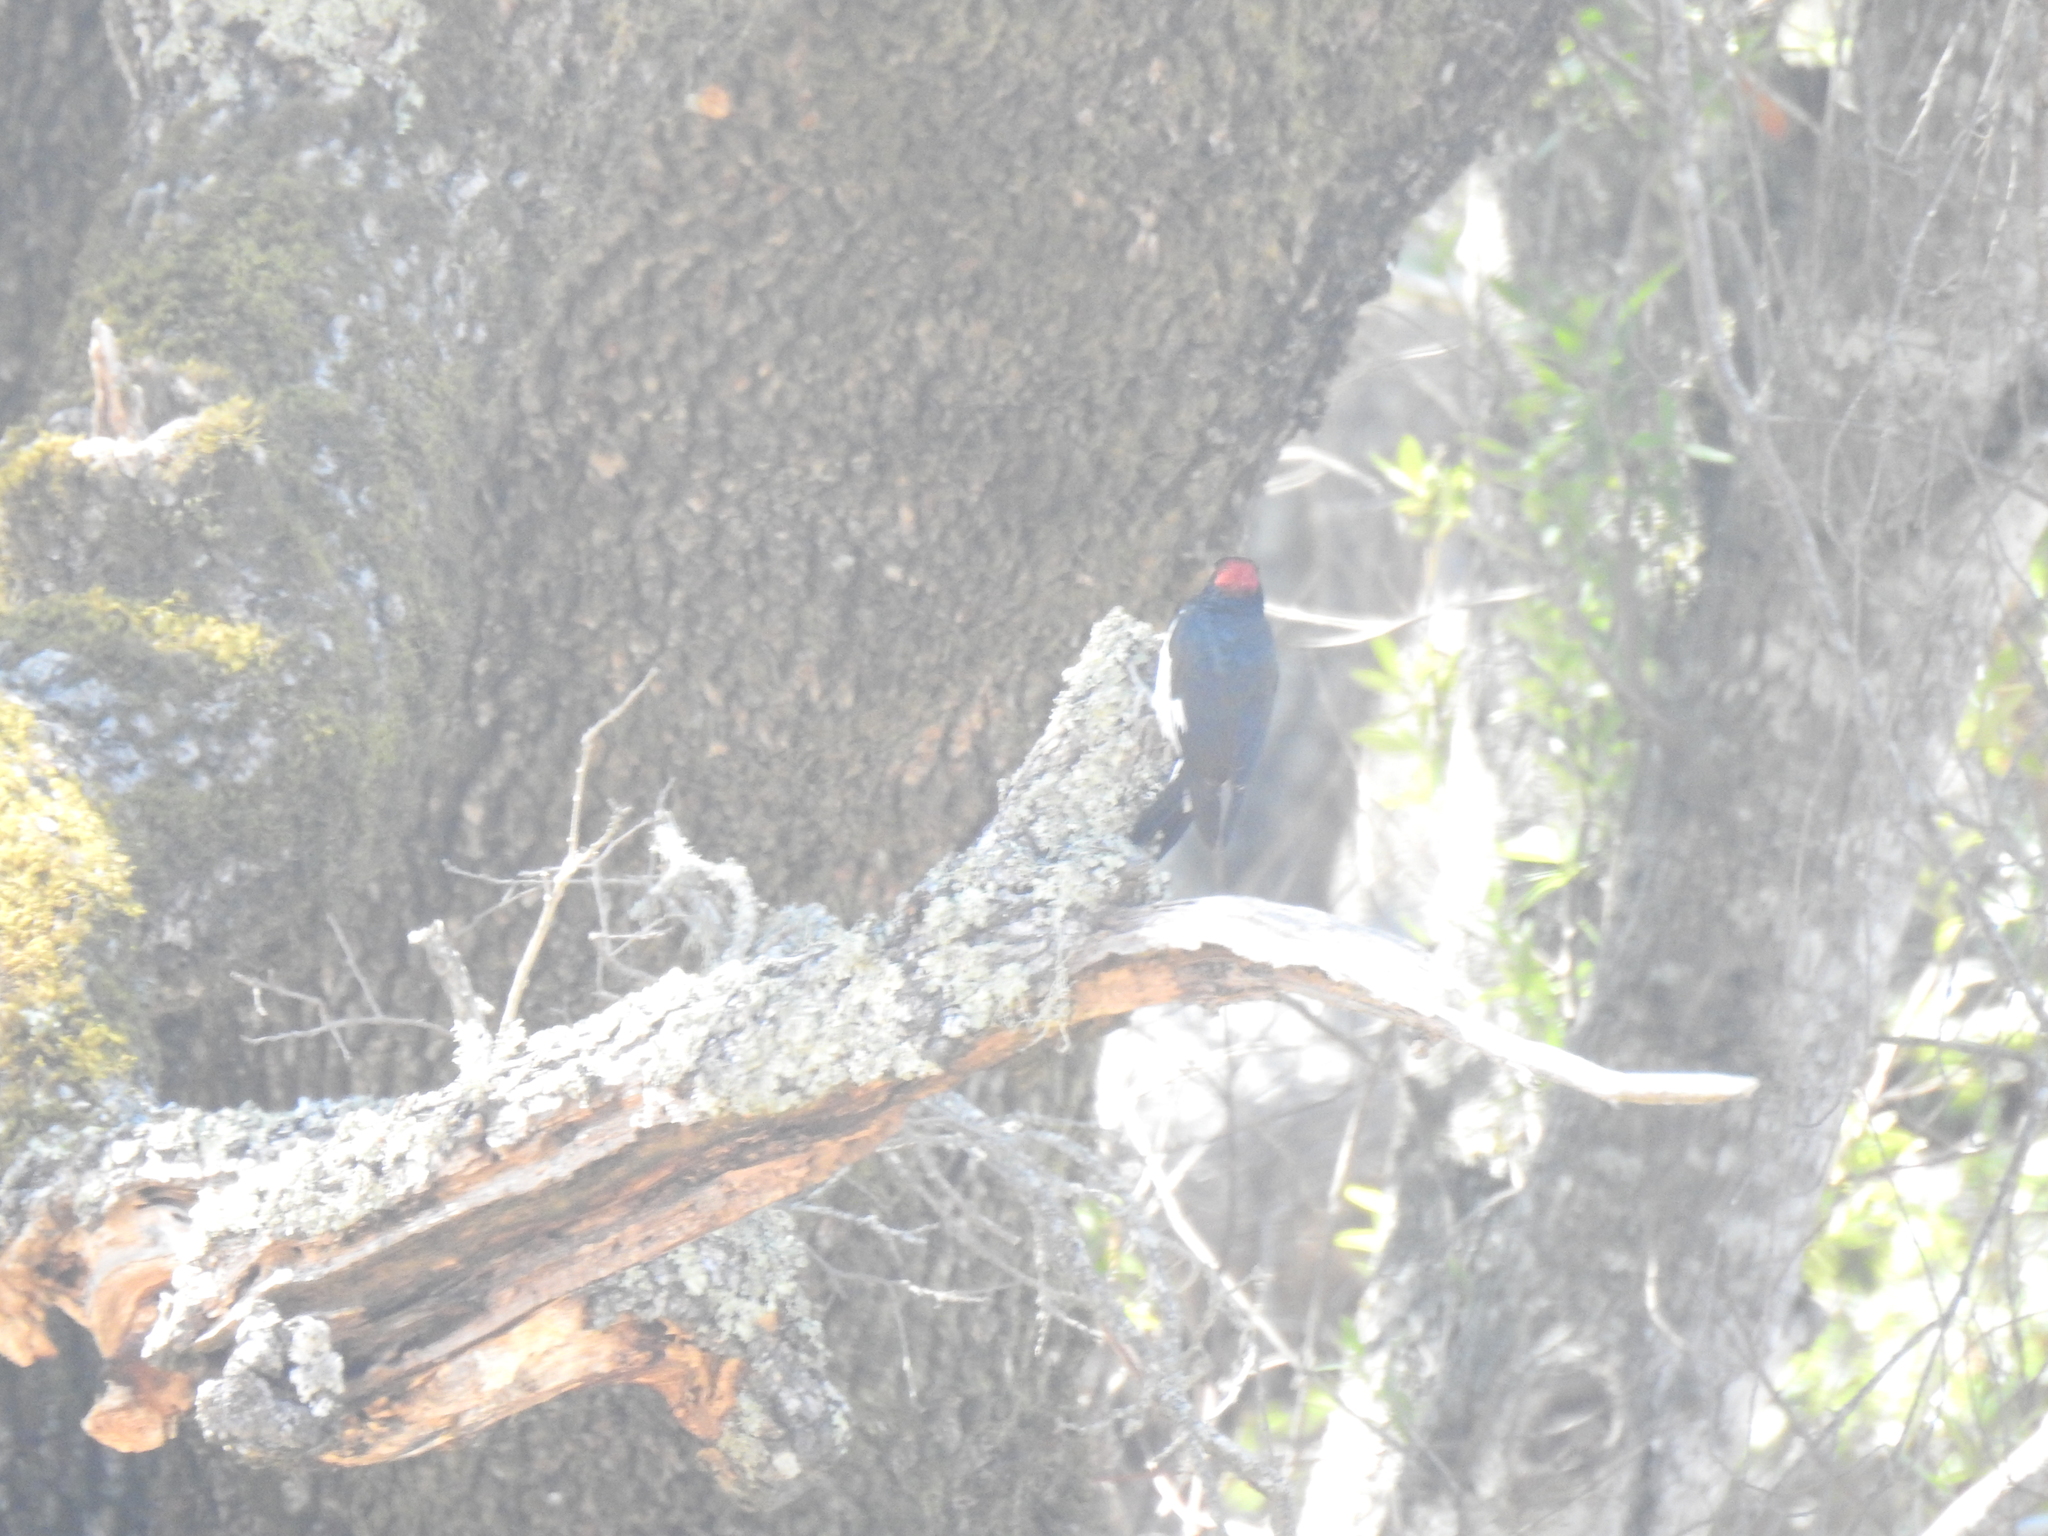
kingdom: Animalia
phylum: Chordata
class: Aves
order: Piciformes
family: Picidae
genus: Melanerpes
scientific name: Melanerpes formicivorus
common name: Acorn woodpecker
